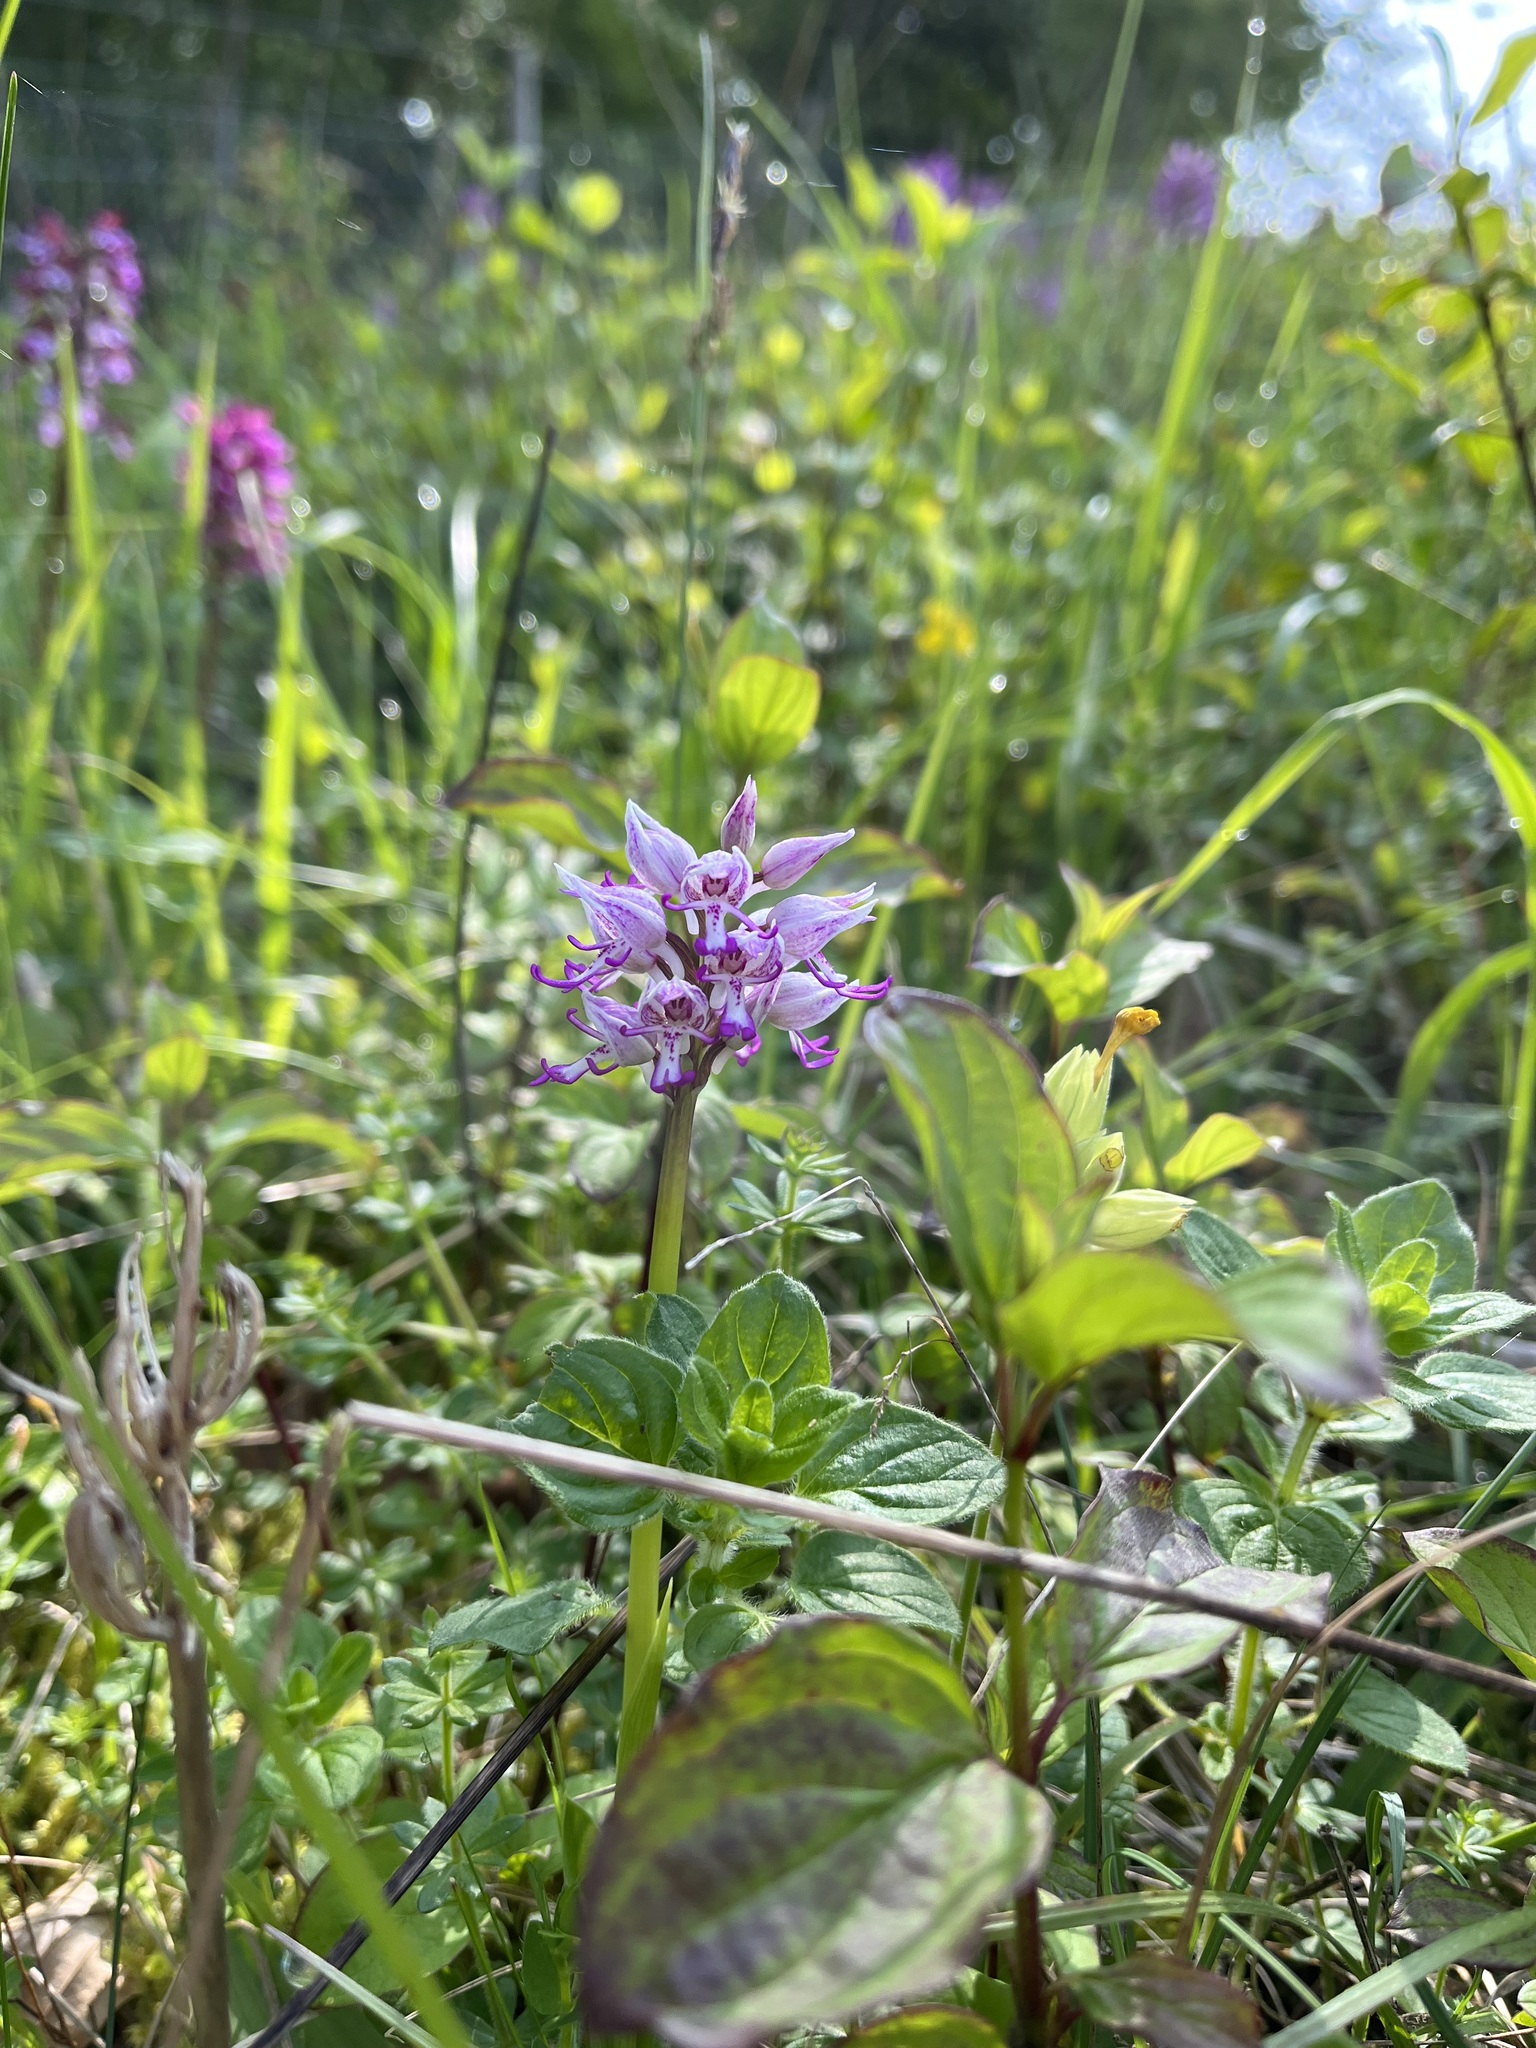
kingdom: Plantae
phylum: Tracheophyta
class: Liliopsida
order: Asparagales
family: Orchidaceae
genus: Orchis
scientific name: Orchis simia
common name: Monkey orchid
